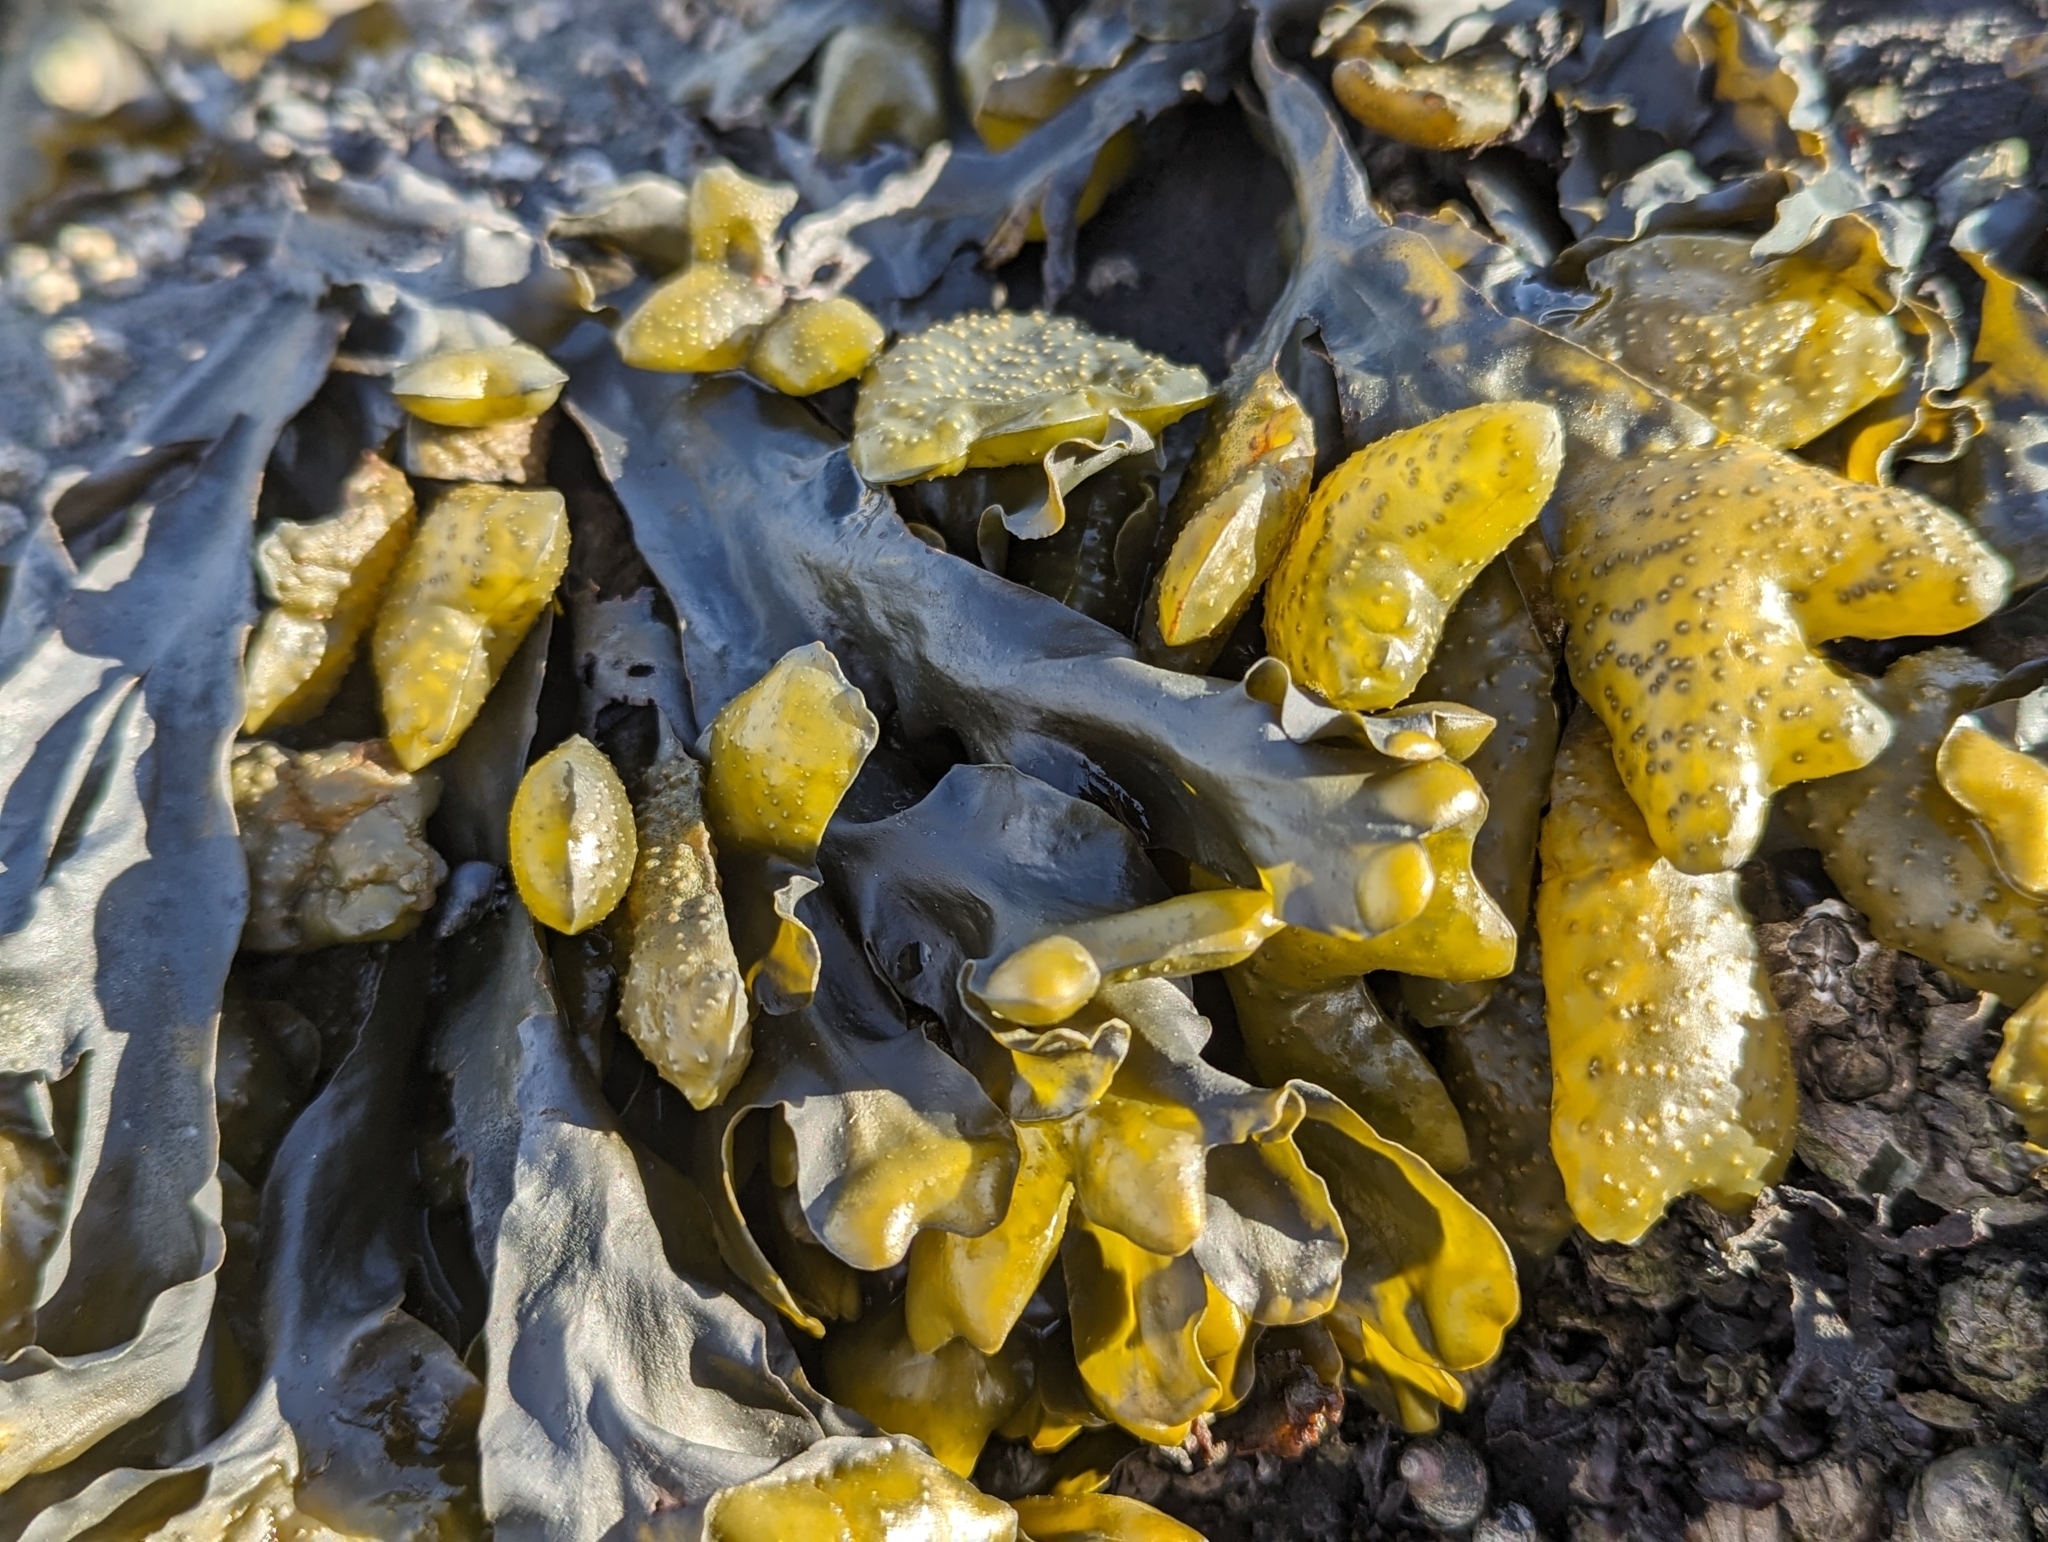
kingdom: Chromista
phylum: Ochrophyta
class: Phaeophyceae
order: Fucales
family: Fucaceae
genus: Fucus
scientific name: Fucus distichus
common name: Rockweed
